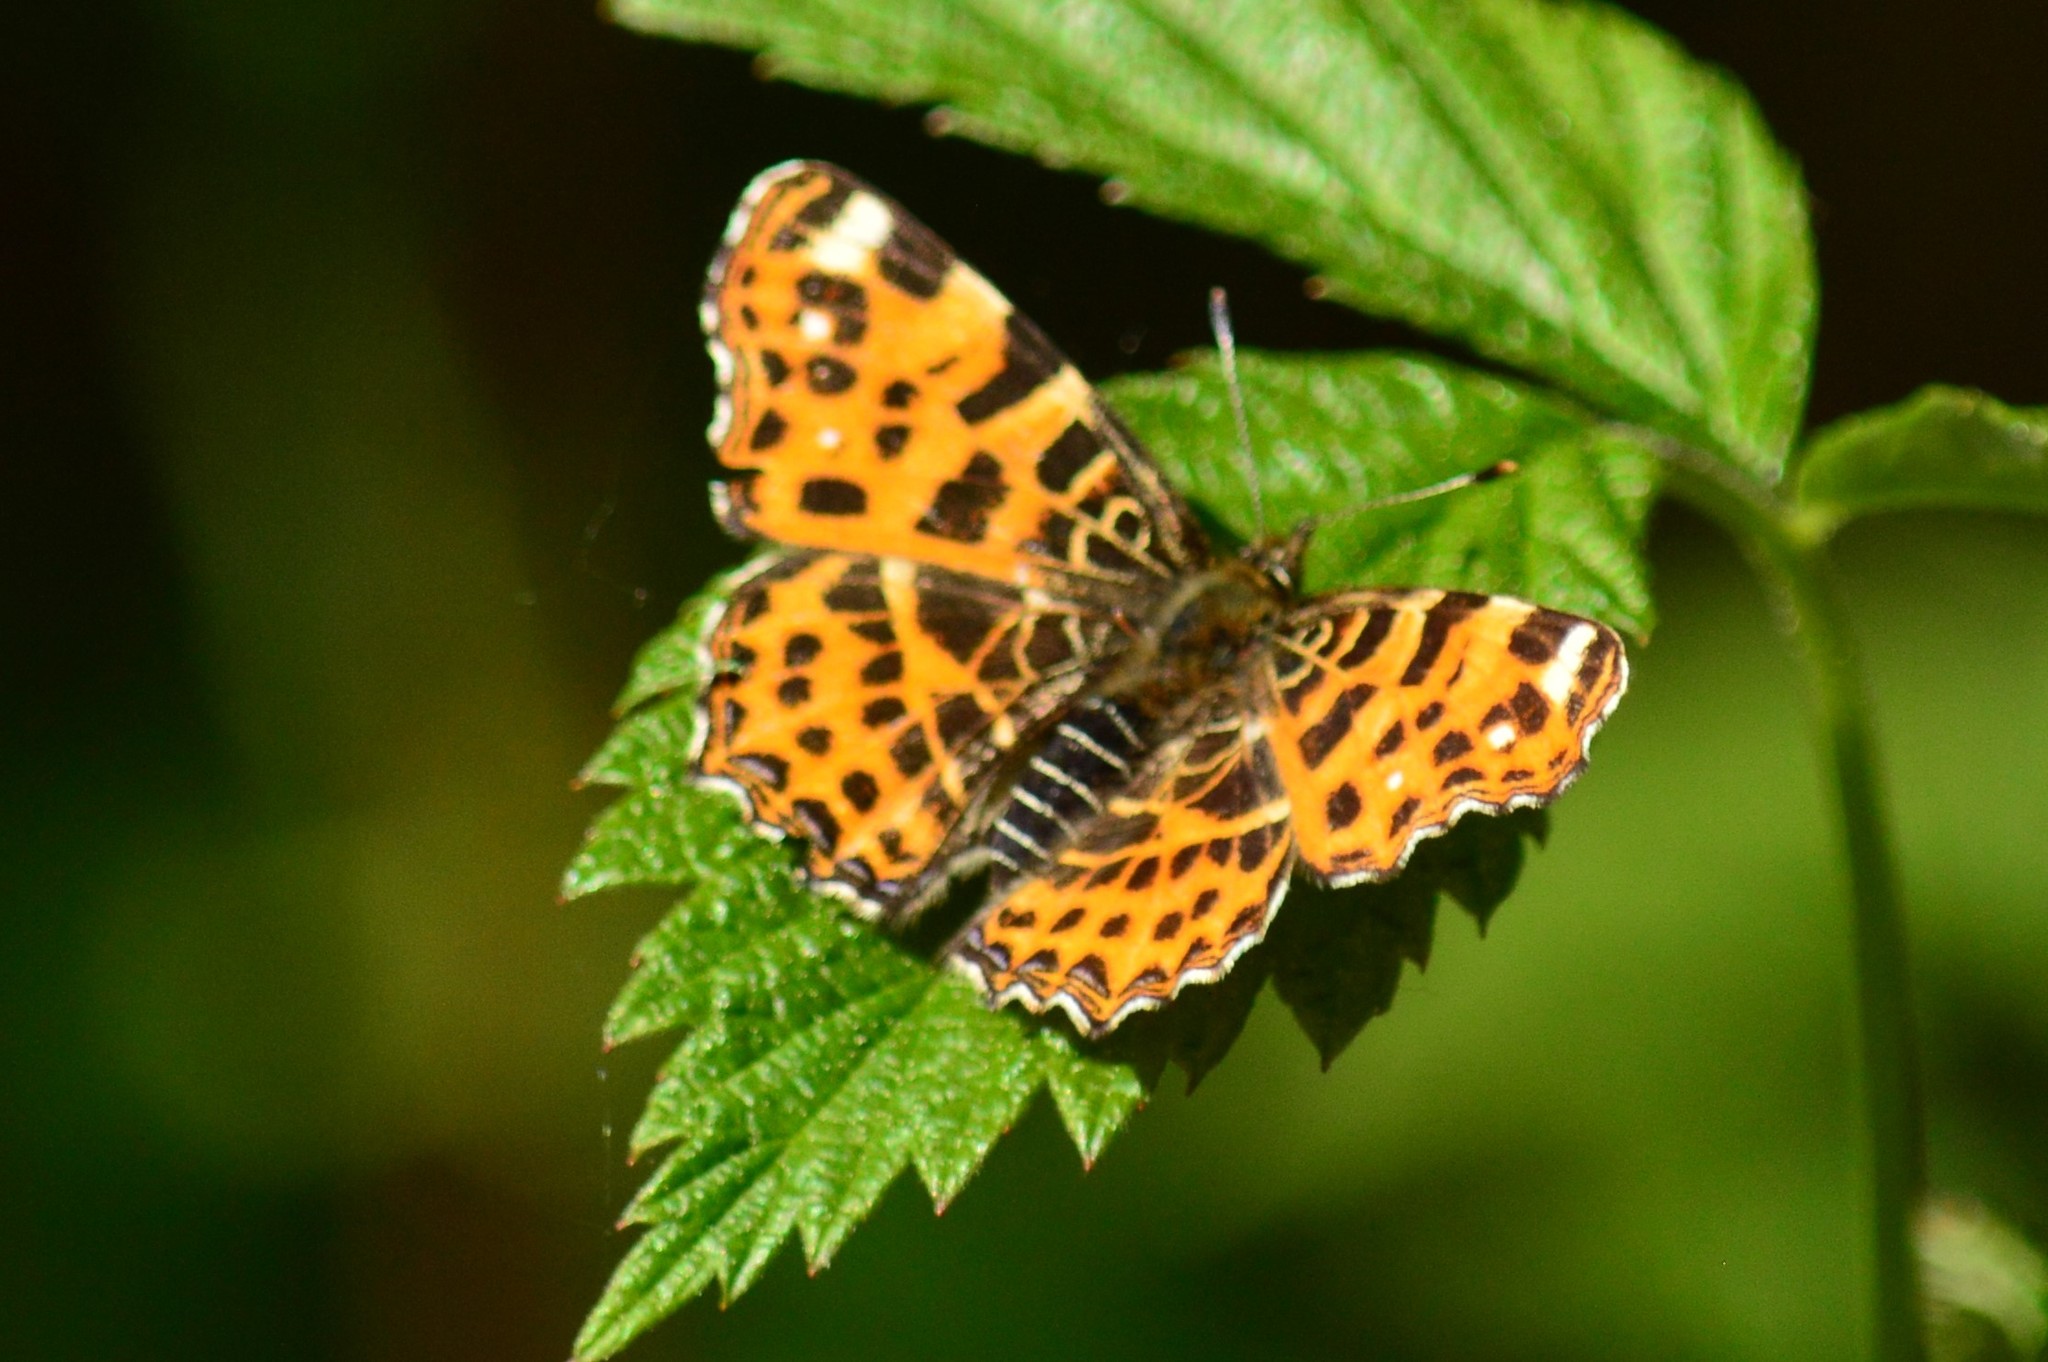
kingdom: Animalia
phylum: Arthropoda
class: Insecta
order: Lepidoptera
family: Nymphalidae
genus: Araschnia
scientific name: Araschnia levana
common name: Map butterfly
